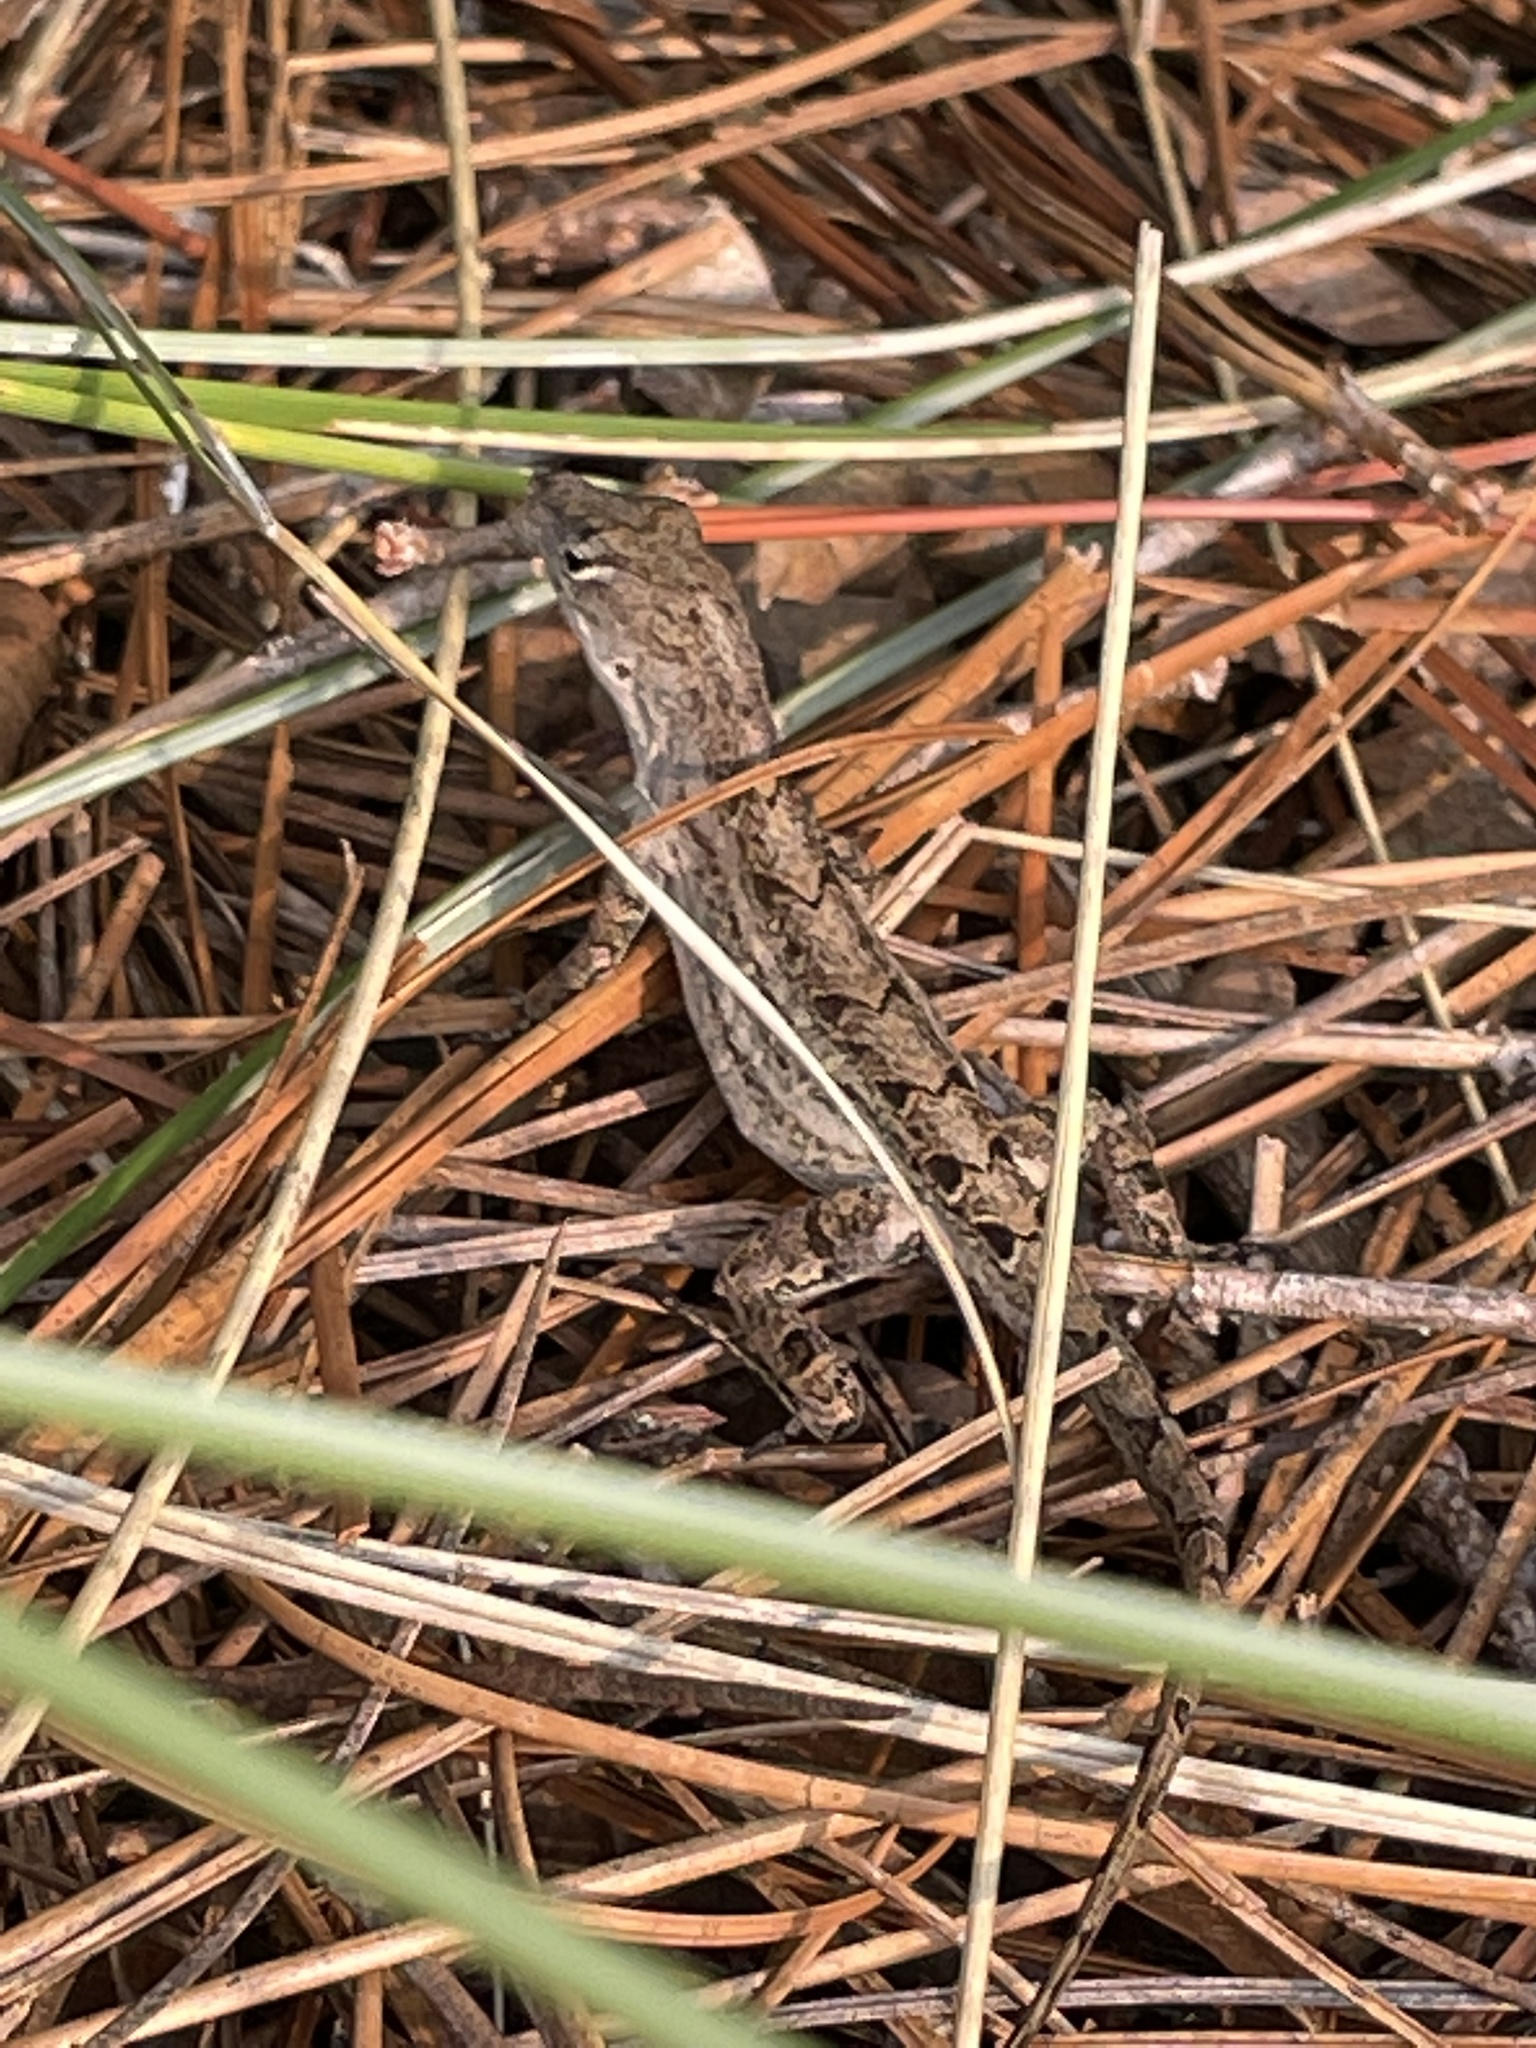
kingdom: Animalia
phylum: Chordata
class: Squamata
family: Dactyloidae
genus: Anolis
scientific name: Anolis sagrei
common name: Brown anole
